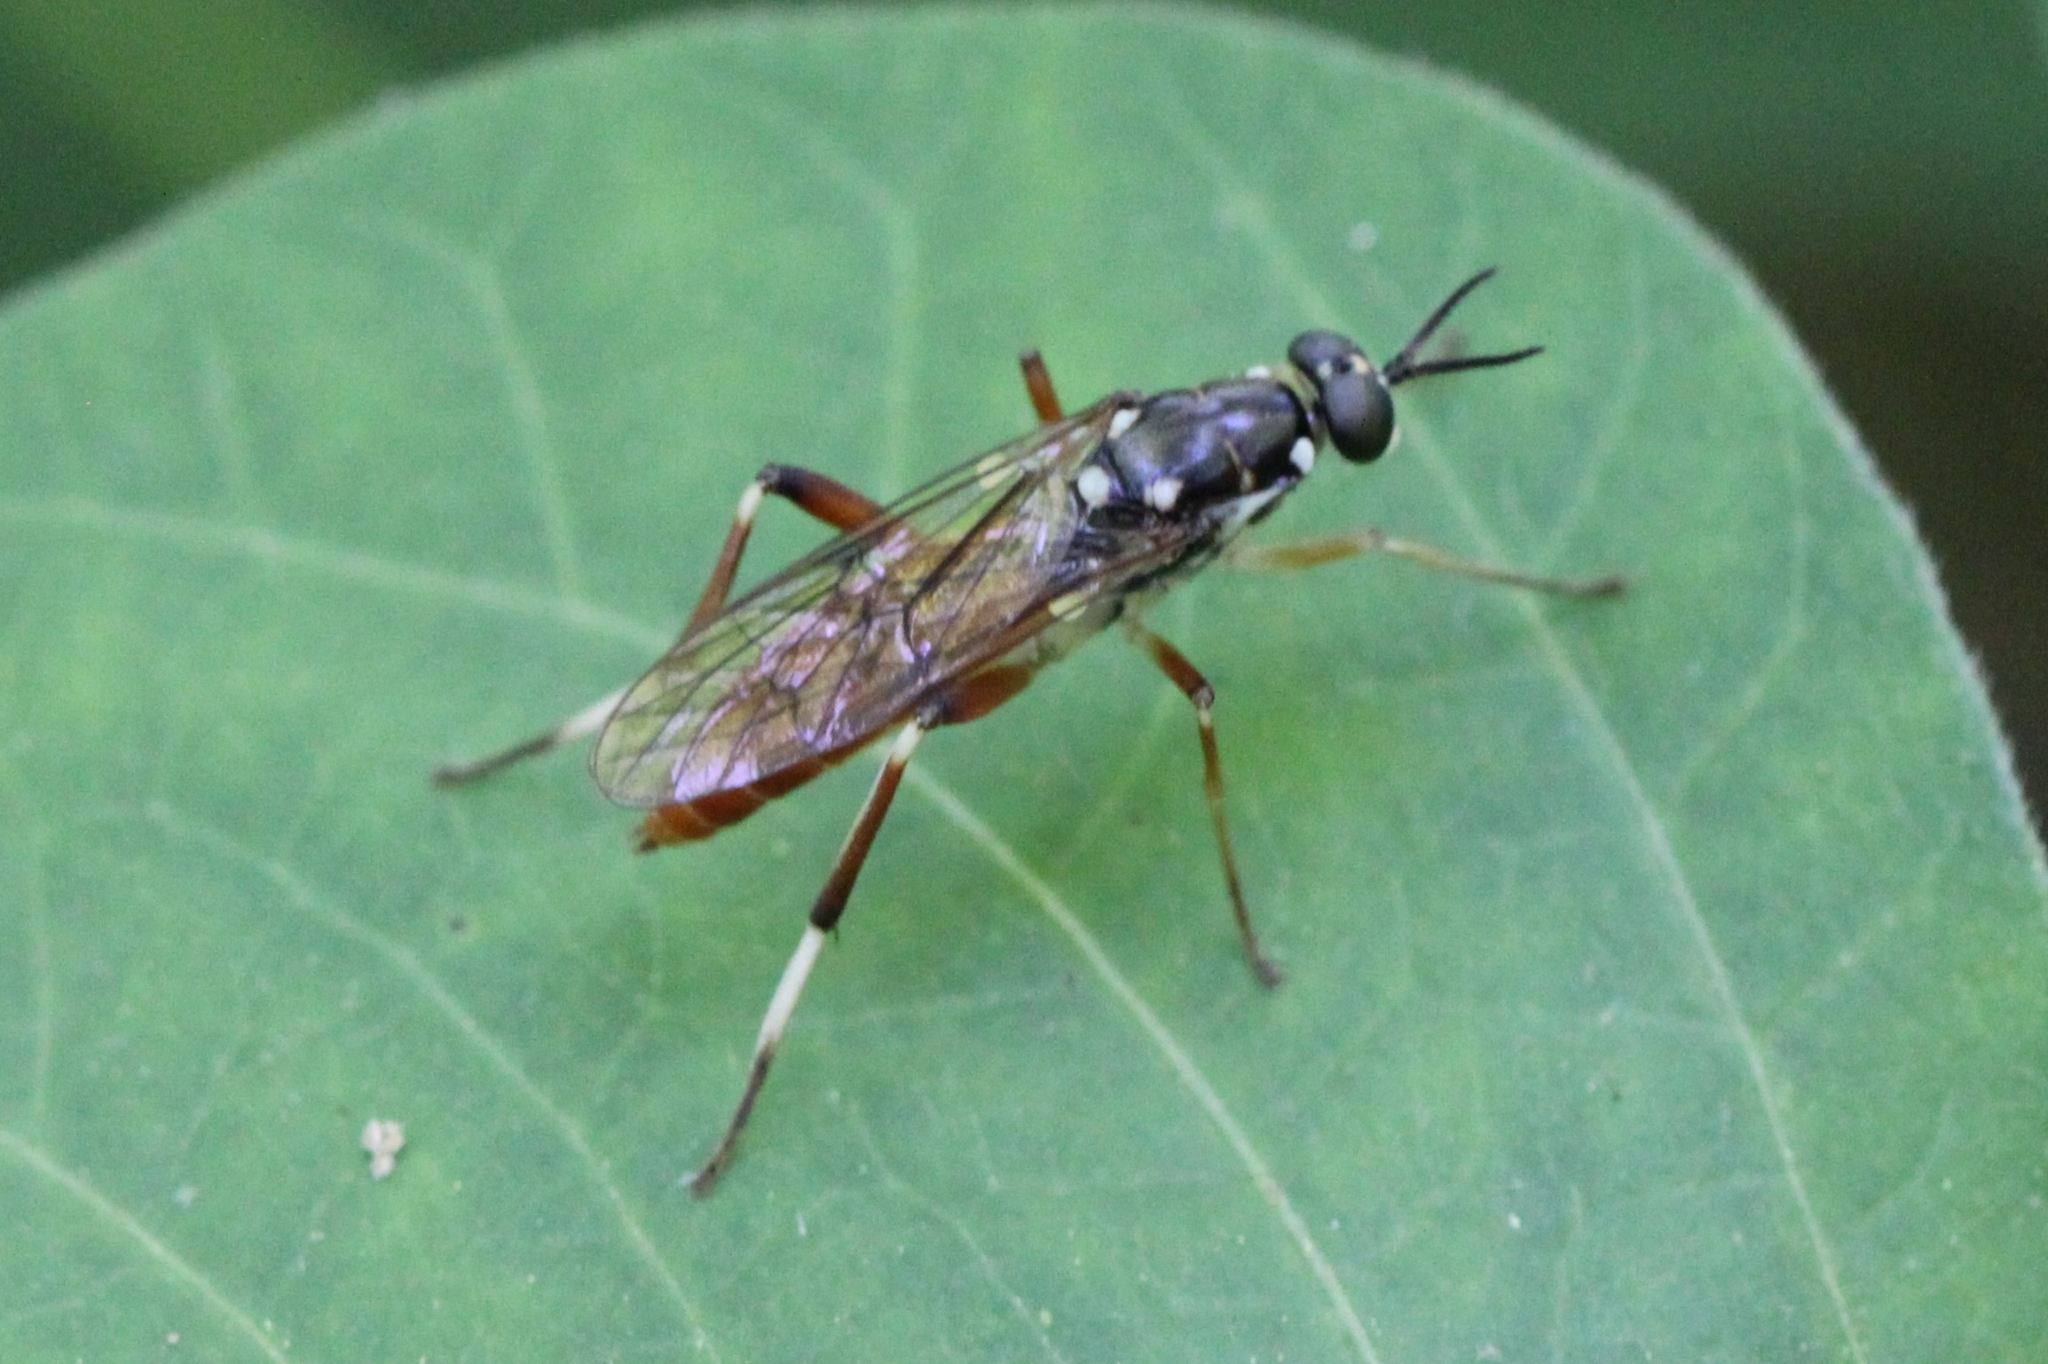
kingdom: Animalia
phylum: Arthropoda
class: Insecta
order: Diptera
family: Xylomyidae
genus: Xylomya
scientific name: Xylomya pallidifemur
